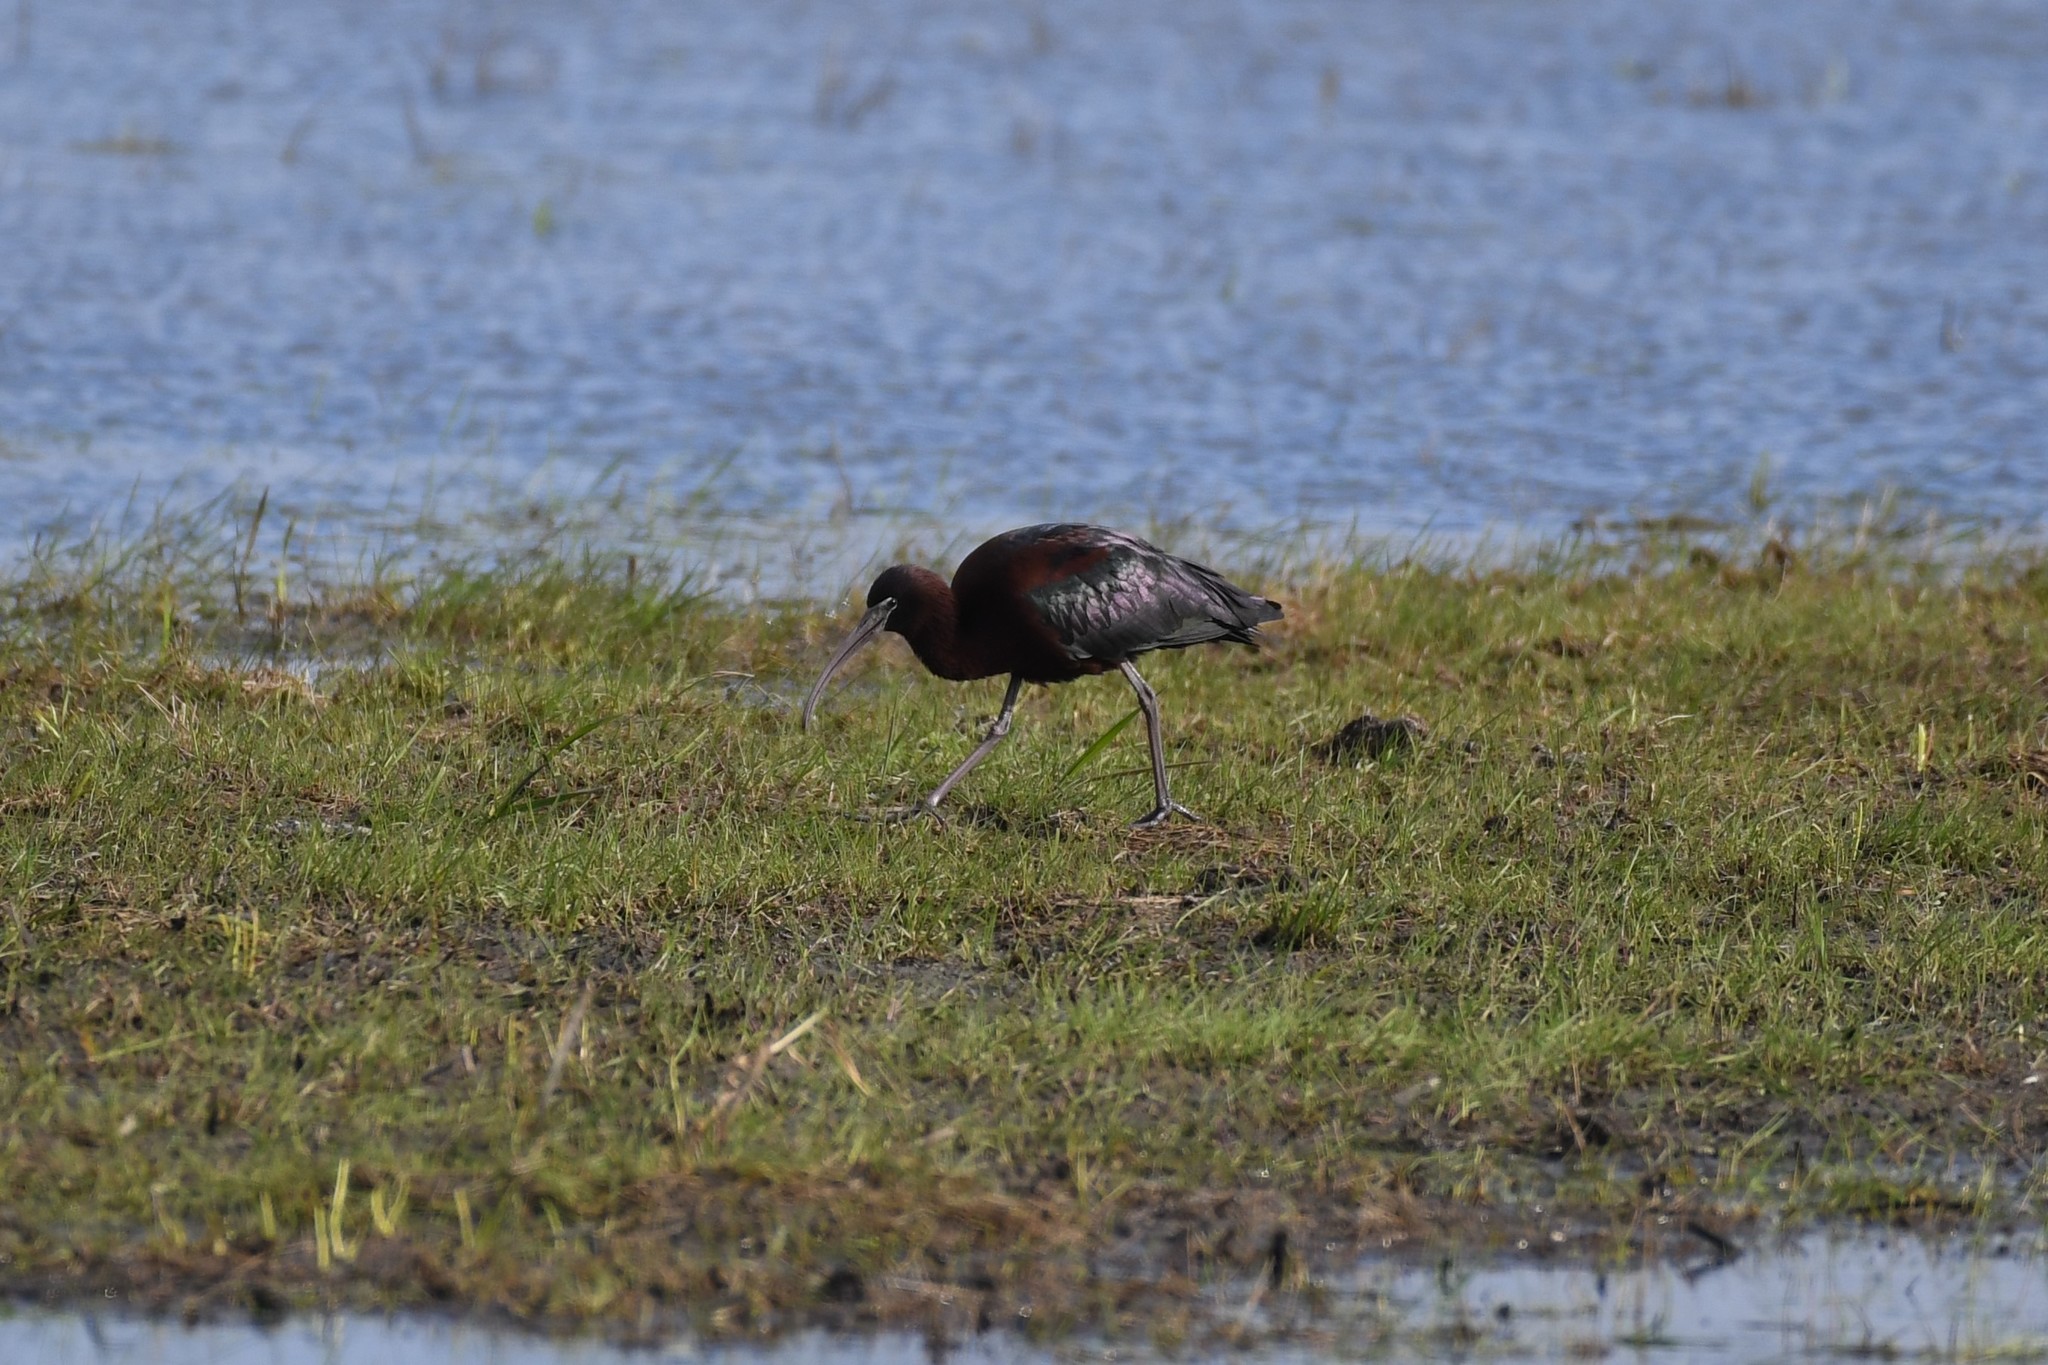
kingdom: Animalia
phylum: Chordata
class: Aves
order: Pelecaniformes
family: Threskiornithidae
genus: Plegadis
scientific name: Plegadis falcinellus
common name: Glossy ibis
